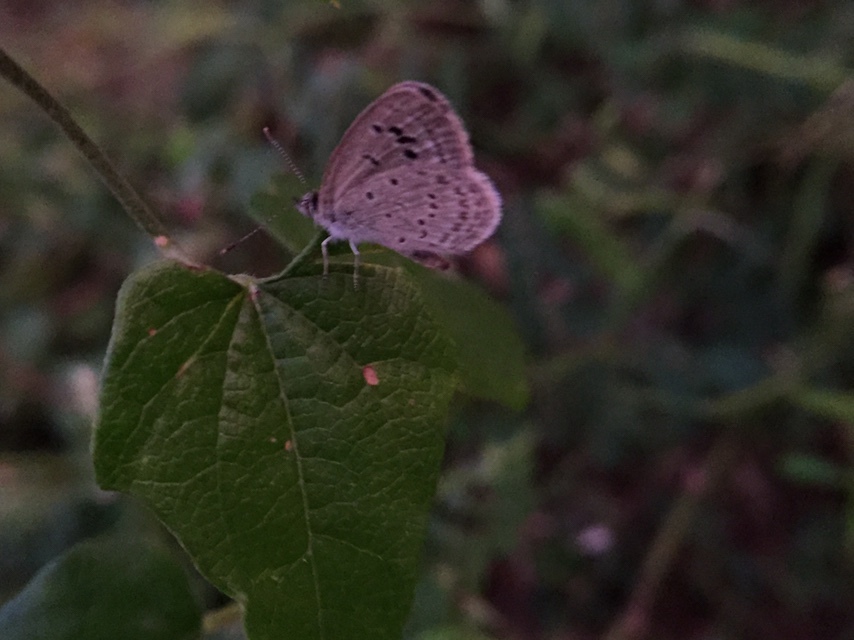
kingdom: Animalia
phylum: Arthropoda
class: Insecta
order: Lepidoptera
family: Lycaenidae
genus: Zizina
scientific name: Zizina otis
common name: Lesser grass blue
